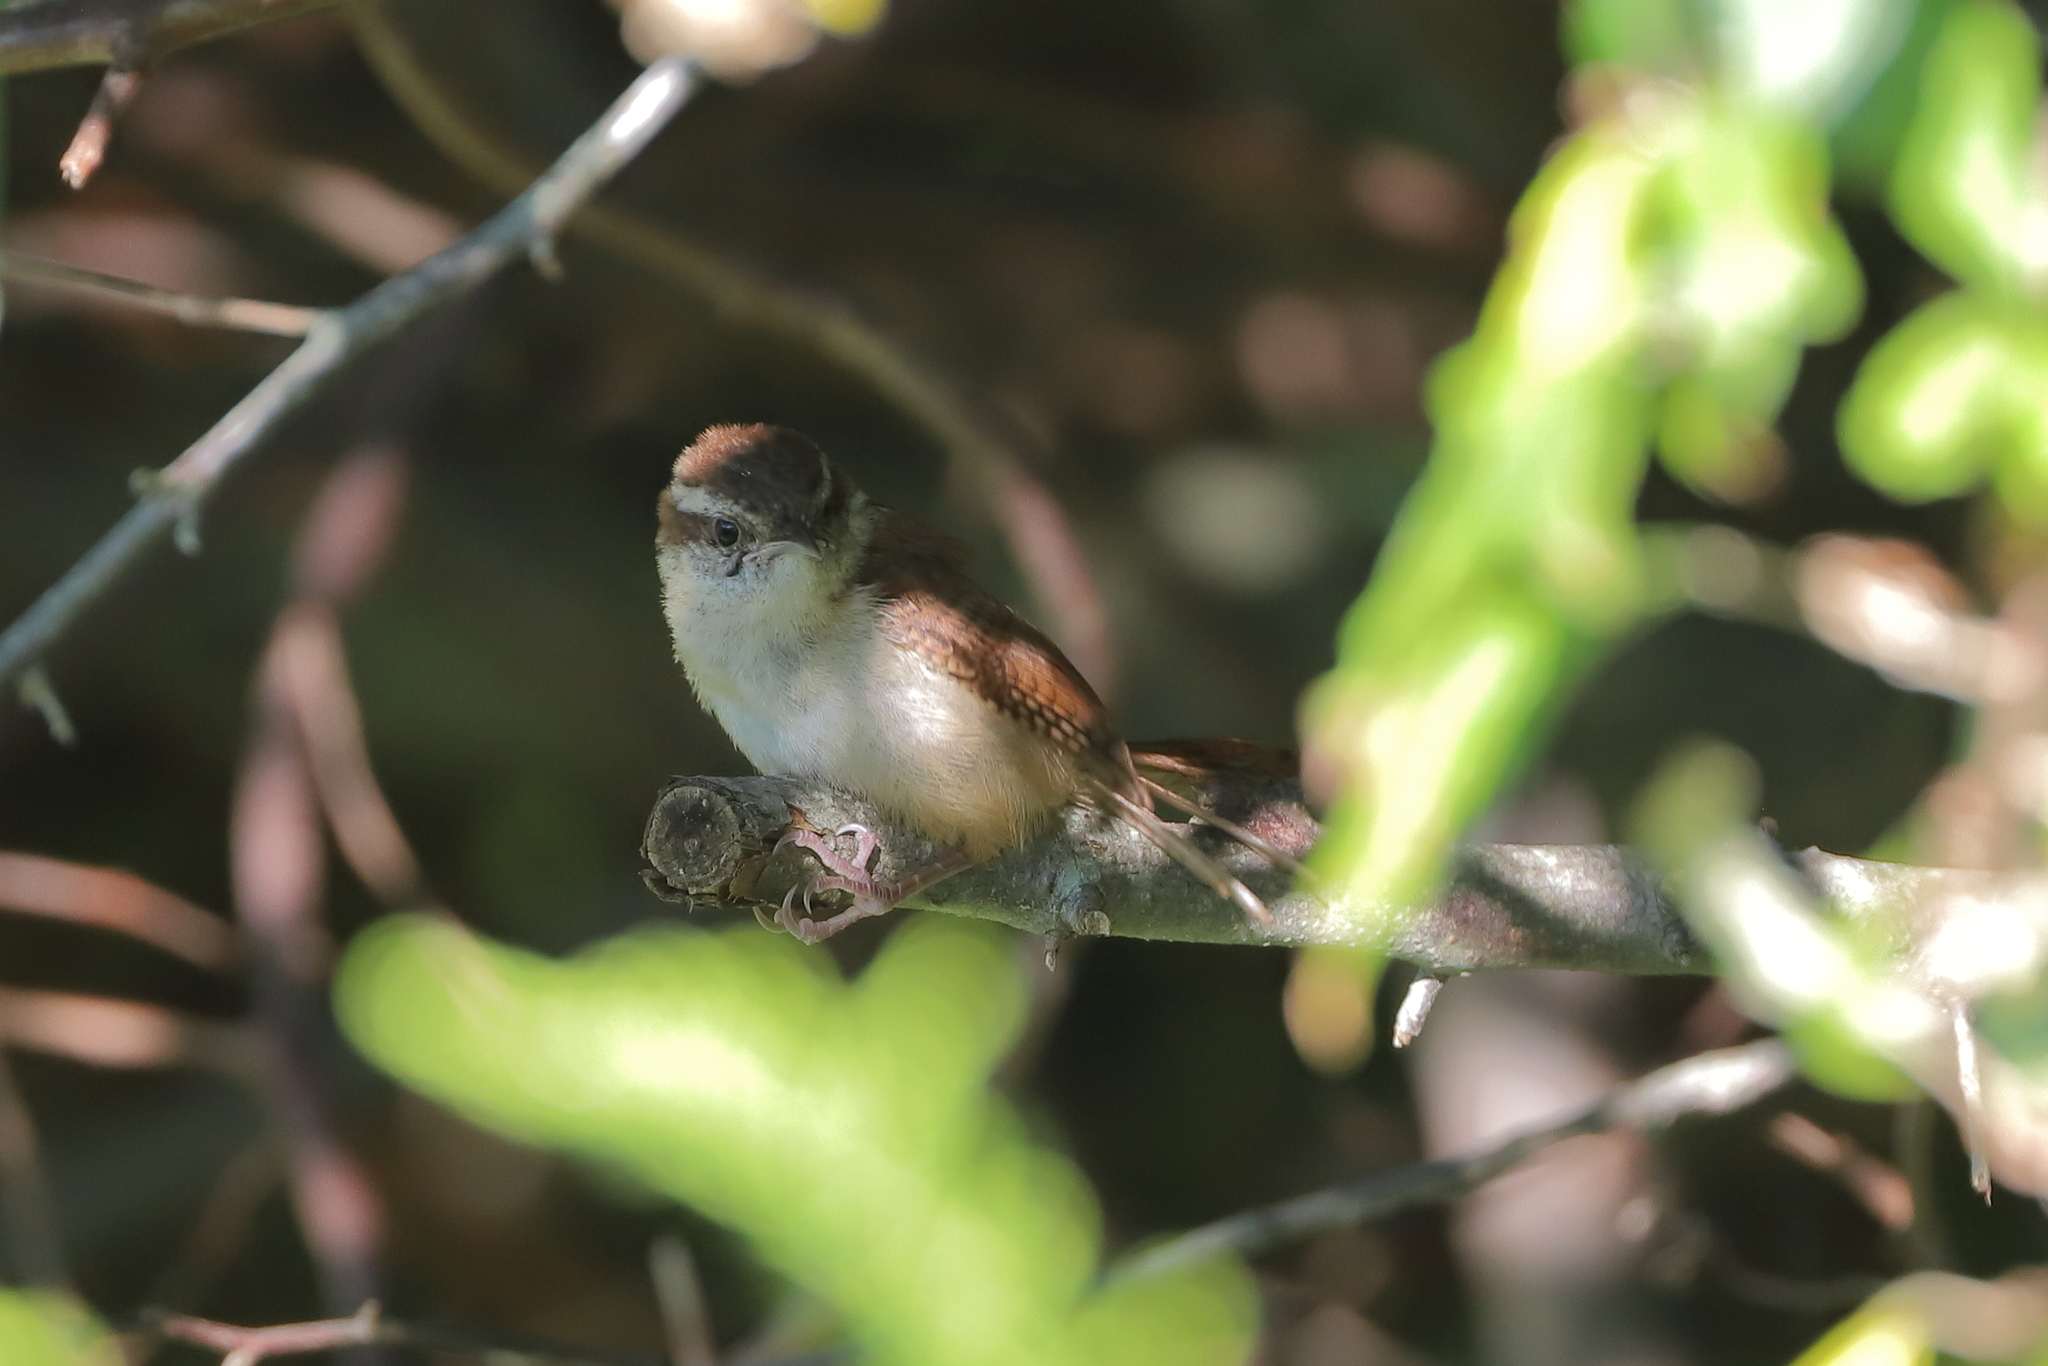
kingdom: Animalia
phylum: Chordata
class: Aves
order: Passeriformes
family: Troglodytidae
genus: Thryothorus
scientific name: Thryothorus ludovicianus
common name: Carolina wren
